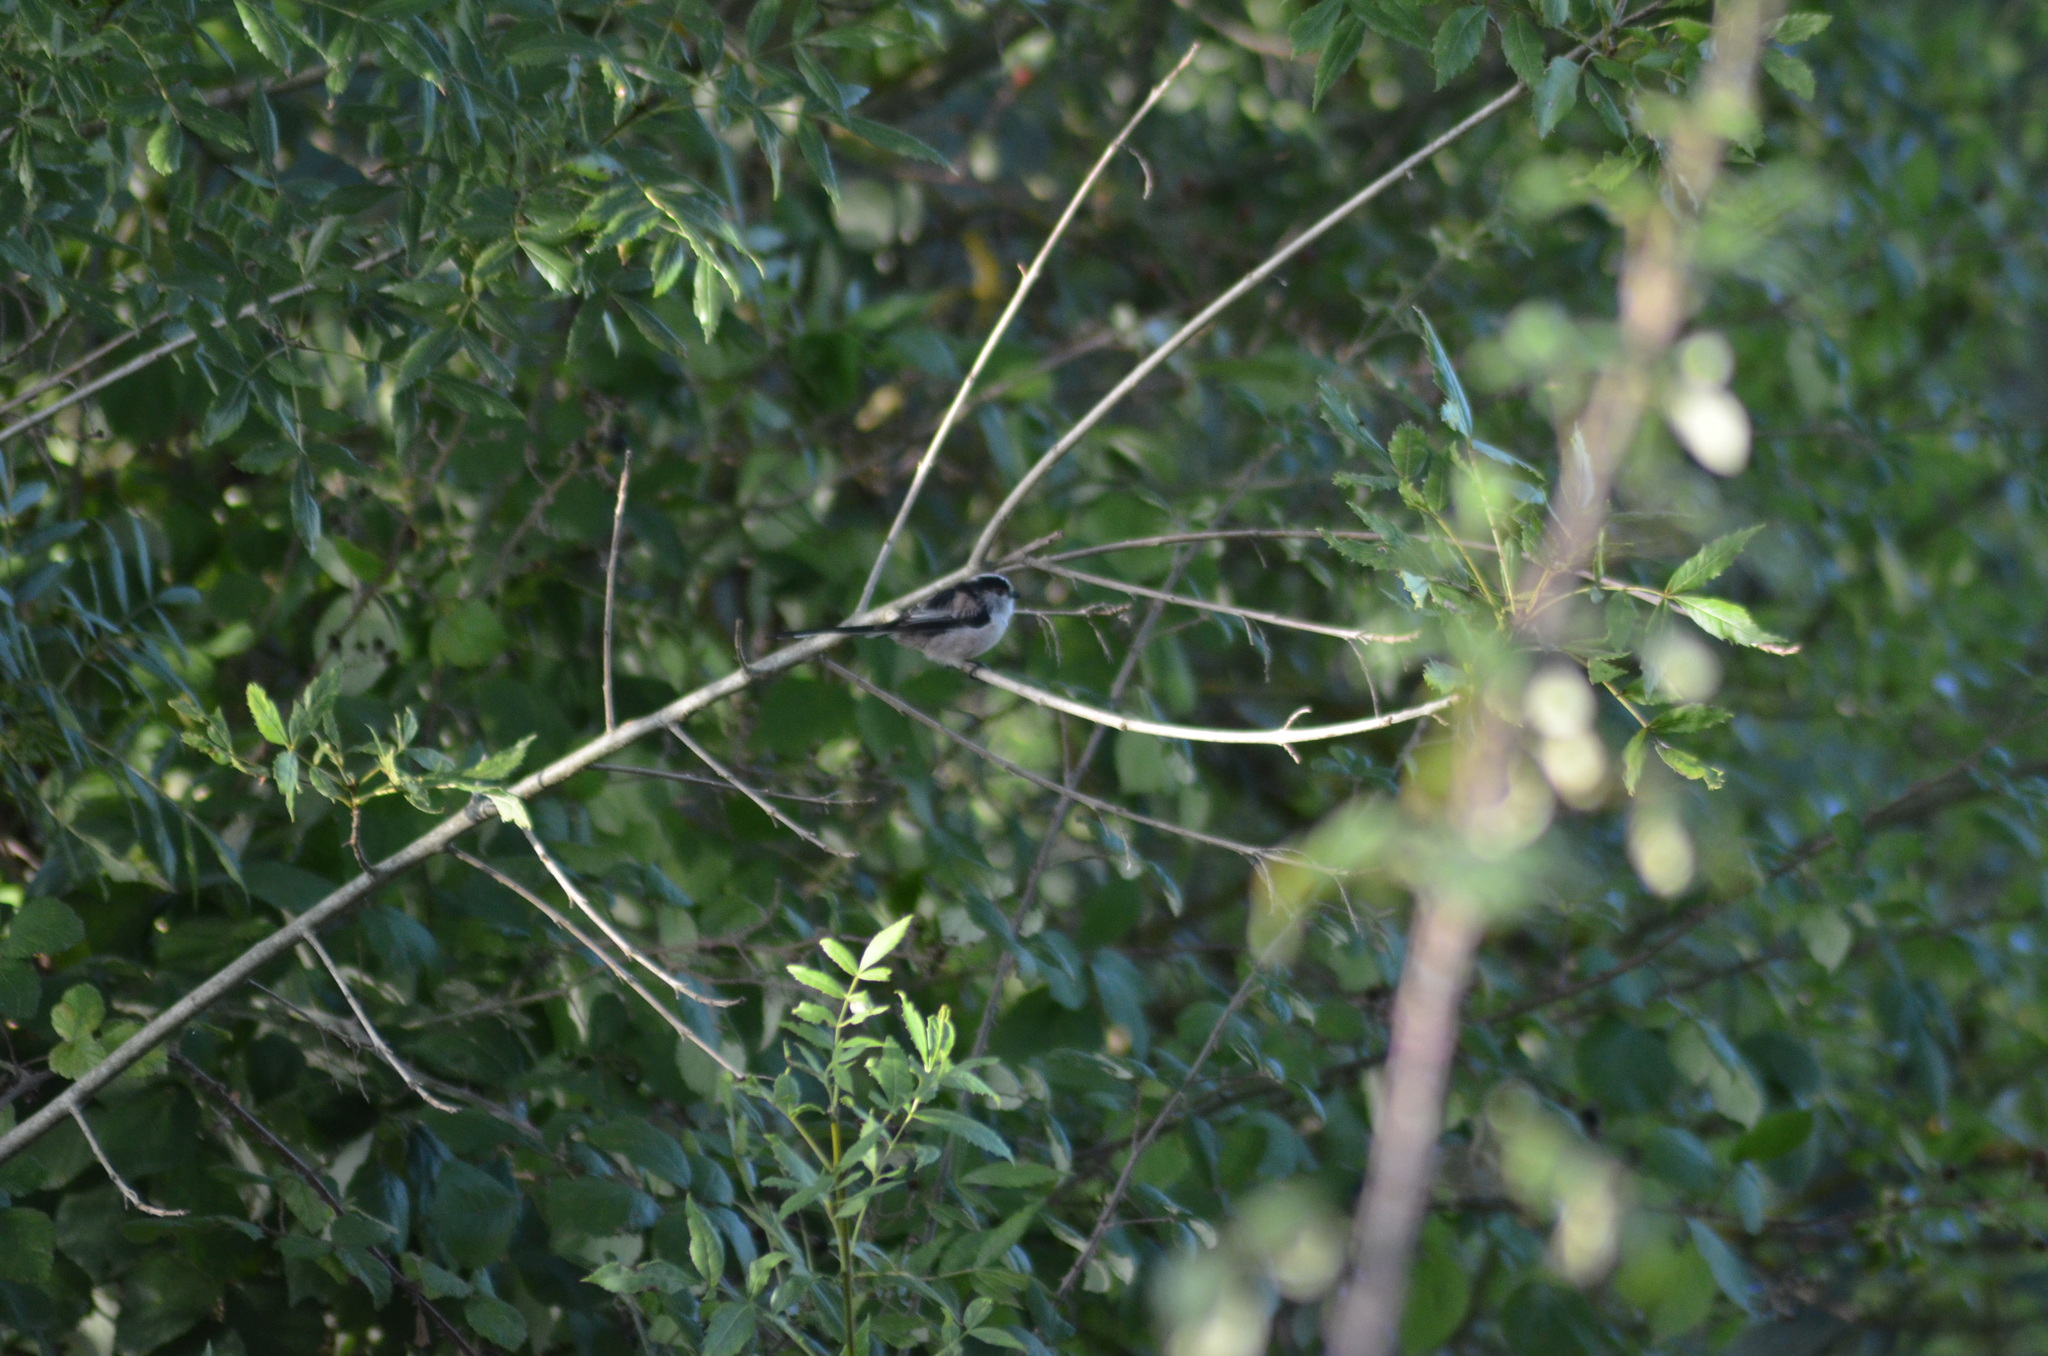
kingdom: Animalia
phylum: Chordata
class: Aves
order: Passeriformes
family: Aegithalidae
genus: Aegithalos
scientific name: Aegithalos caudatus
